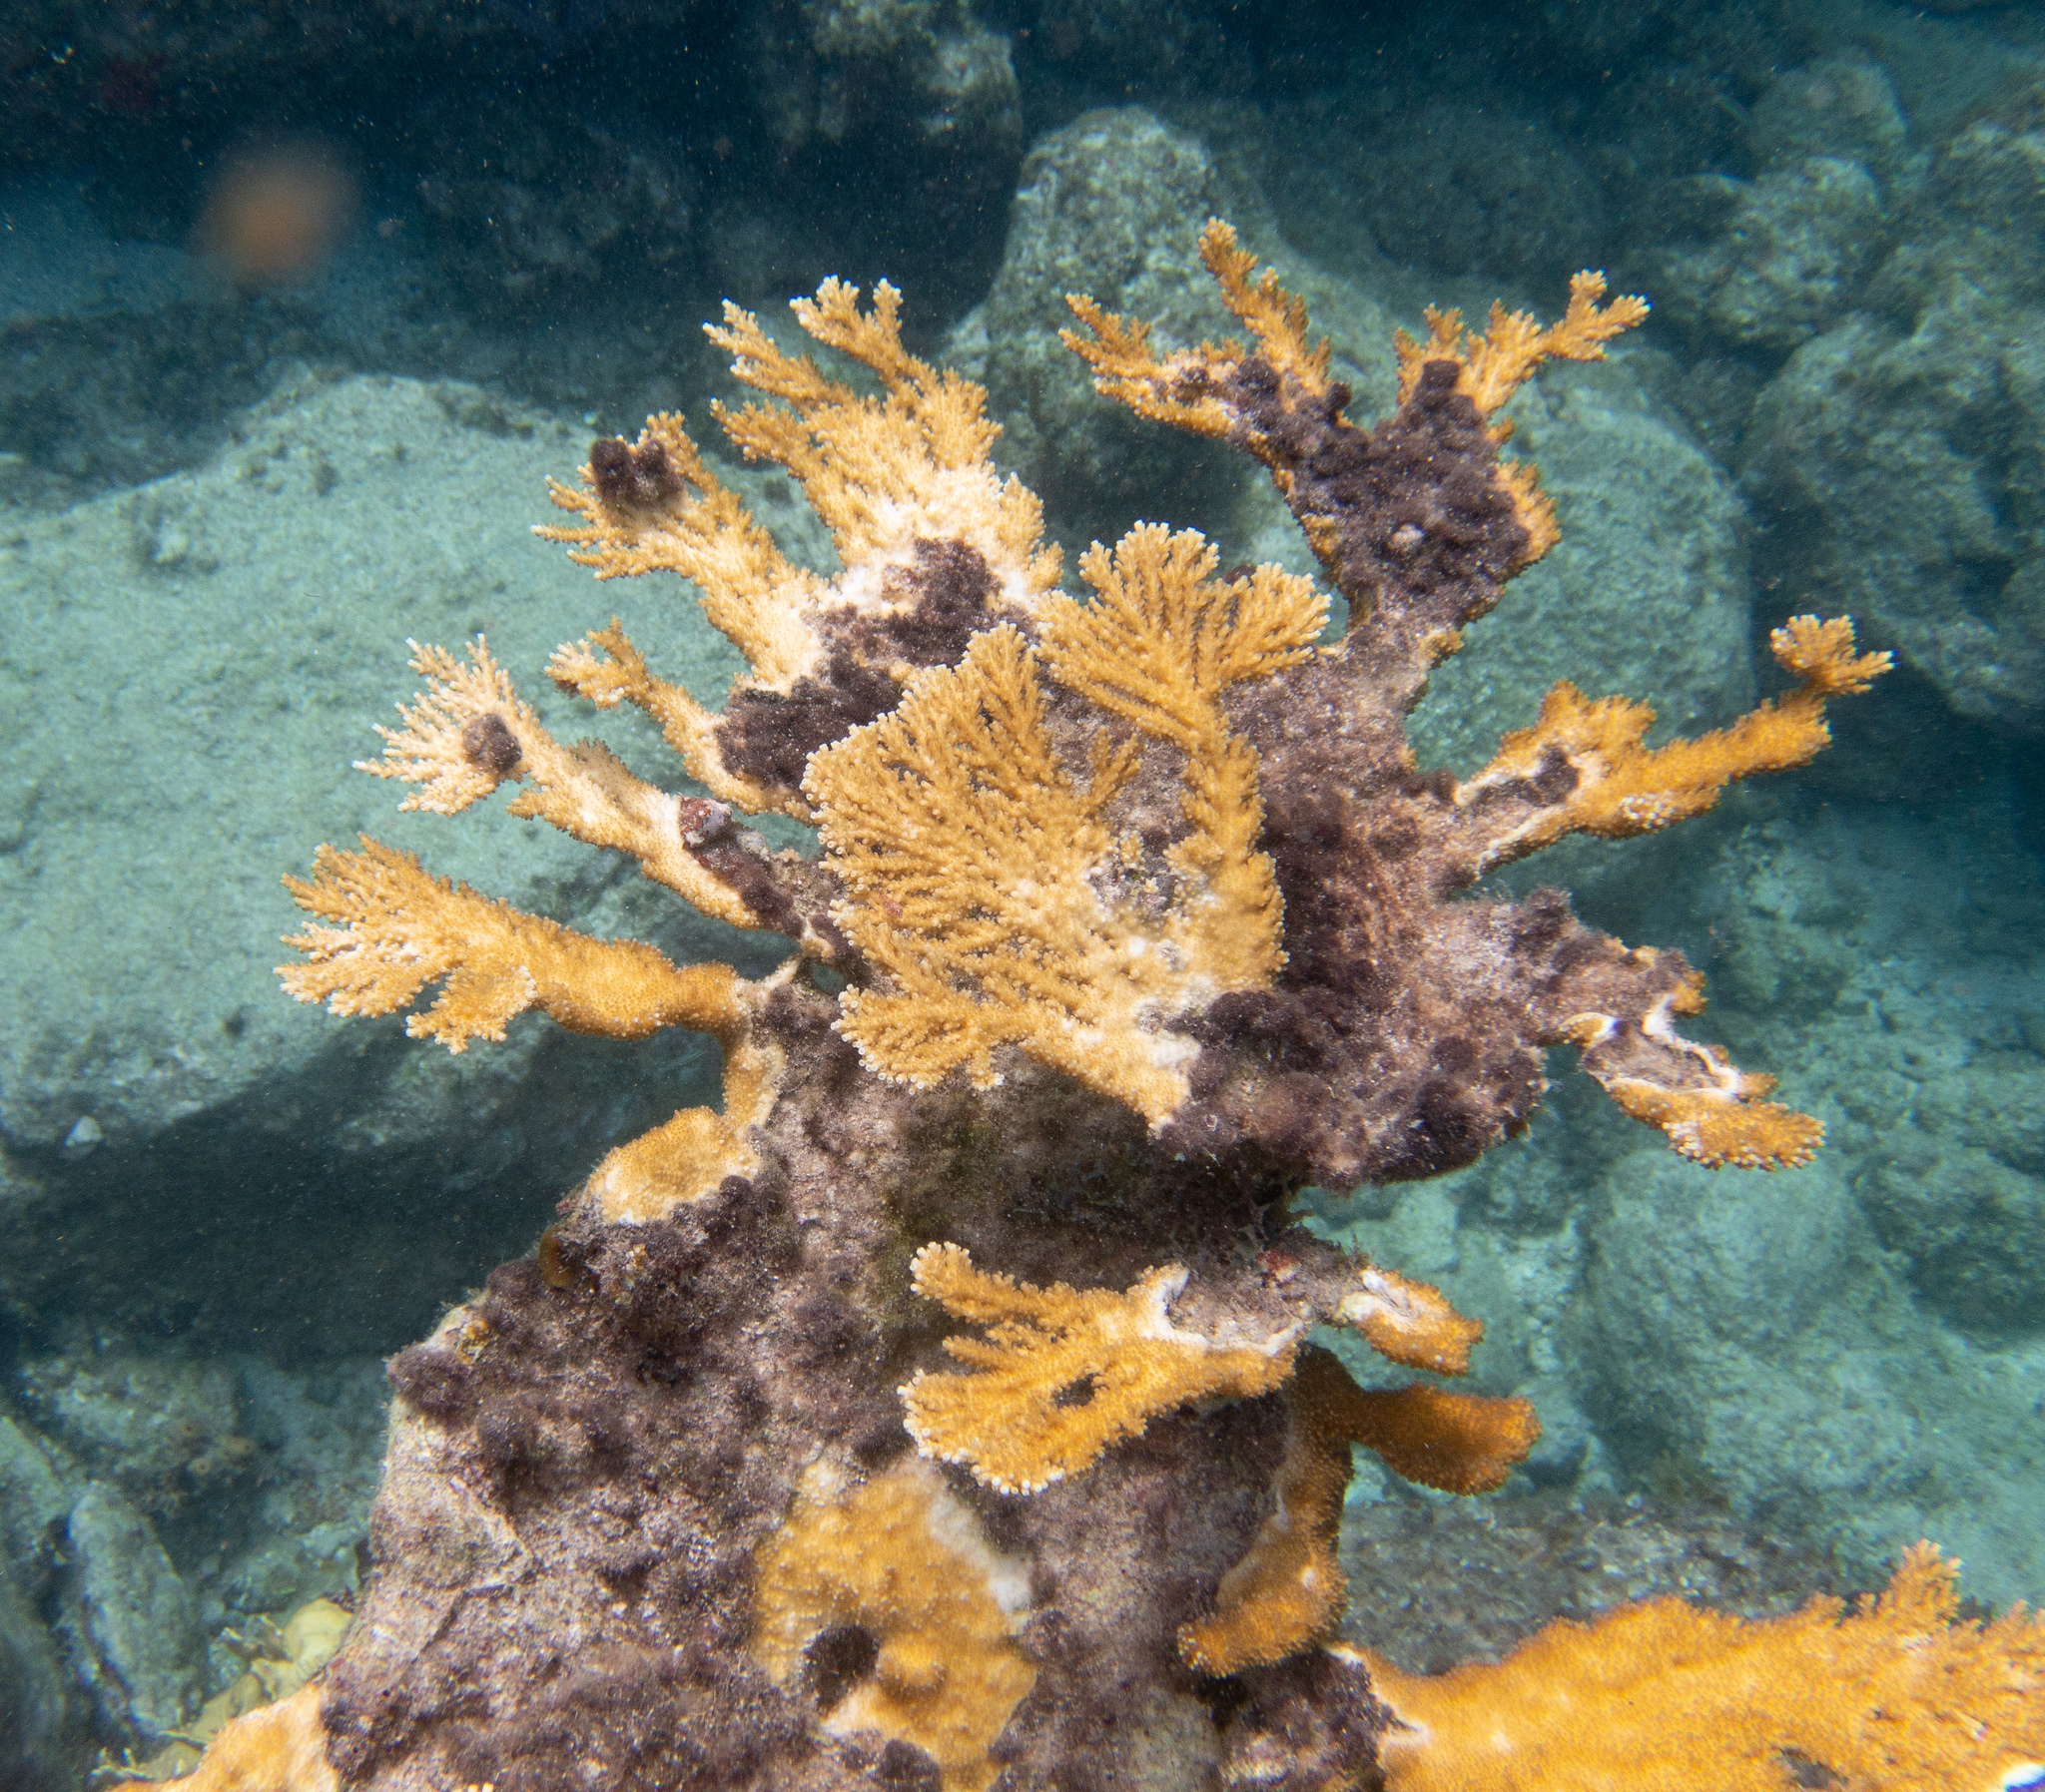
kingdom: Animalia
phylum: Cnidaria
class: Anthozoa
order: Scleractinia
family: Acroporidae
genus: Acropora
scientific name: Acropora prolifera
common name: Fused staghorn coral
